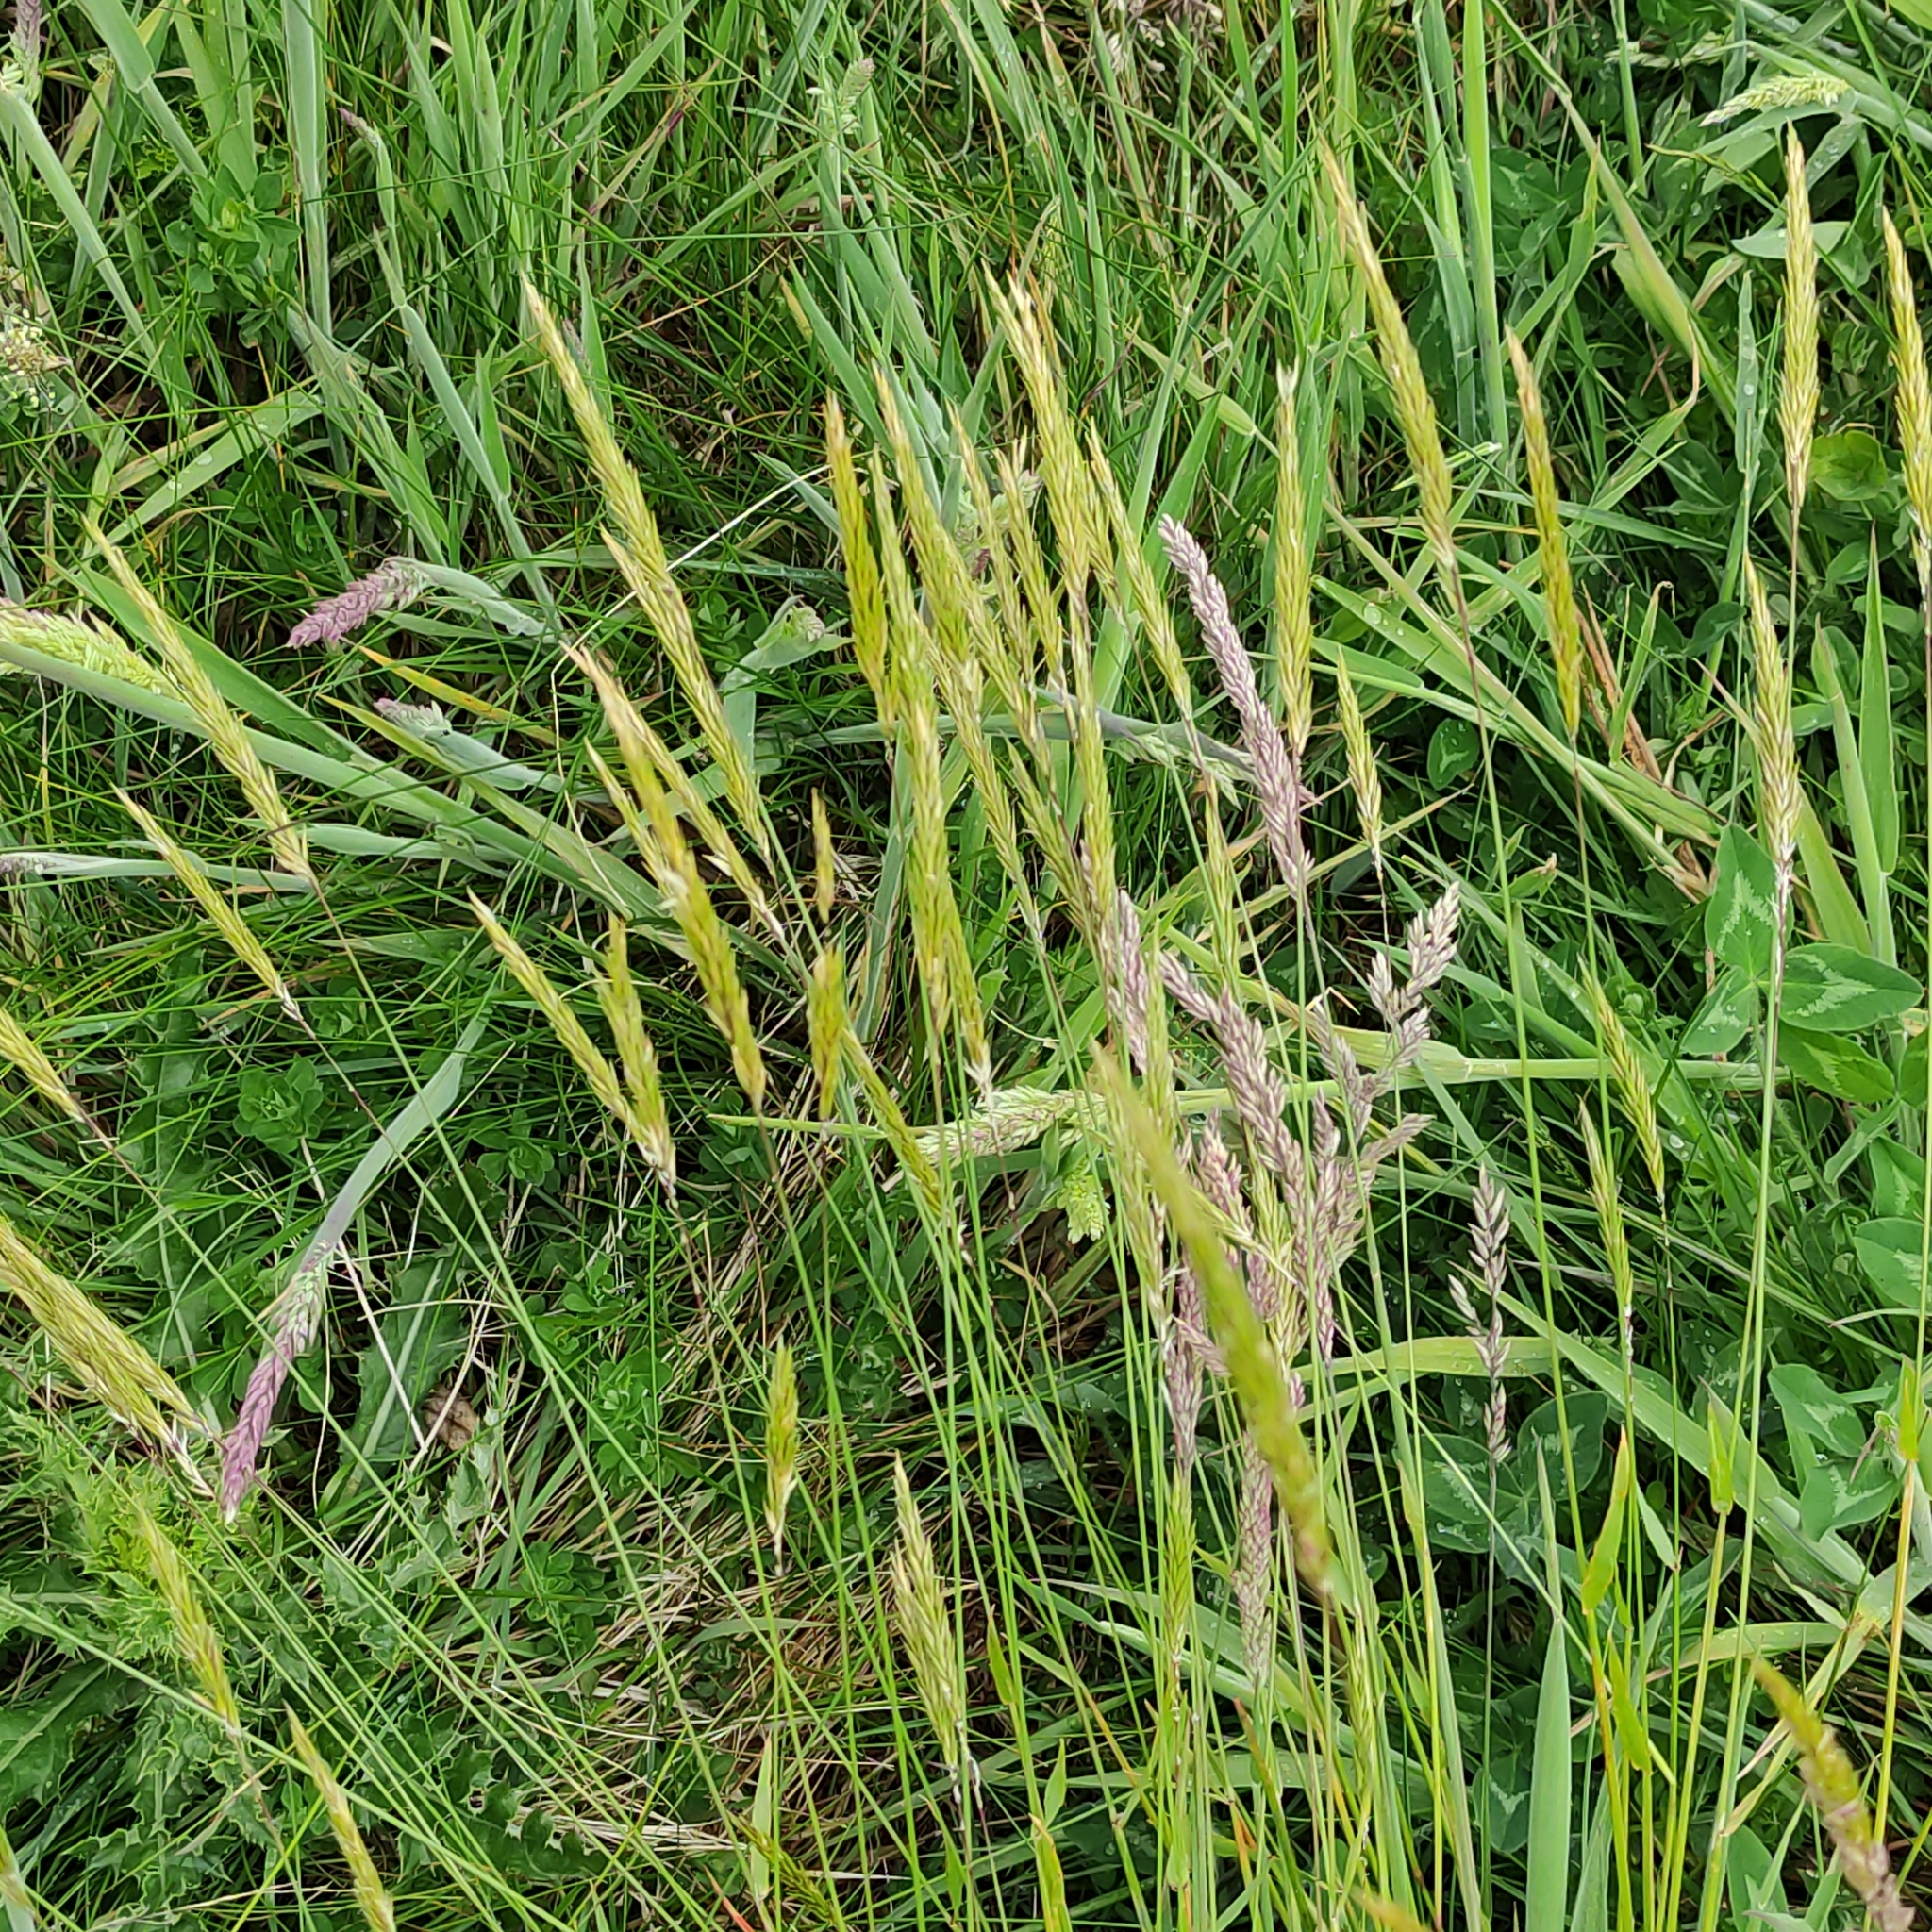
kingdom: Plantae
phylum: Tracheophyta
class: Liliopsida
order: Poales
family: Poaceae
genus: Anthoxanthum
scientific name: Anthoxanthum odoratum
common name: Sweet vernalgrass
